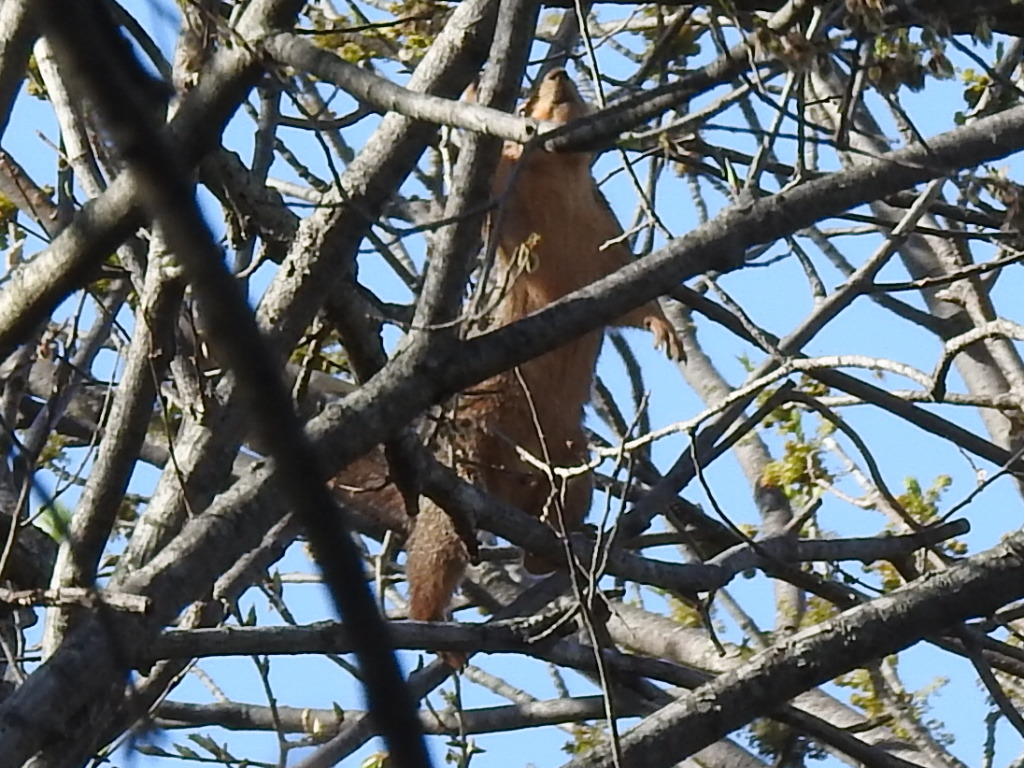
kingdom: Animalia
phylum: Chordata
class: Mammalia
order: Rodentia
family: Sciuridae
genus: Sciurus
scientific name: Sciurus niger
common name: Fox squirrel
